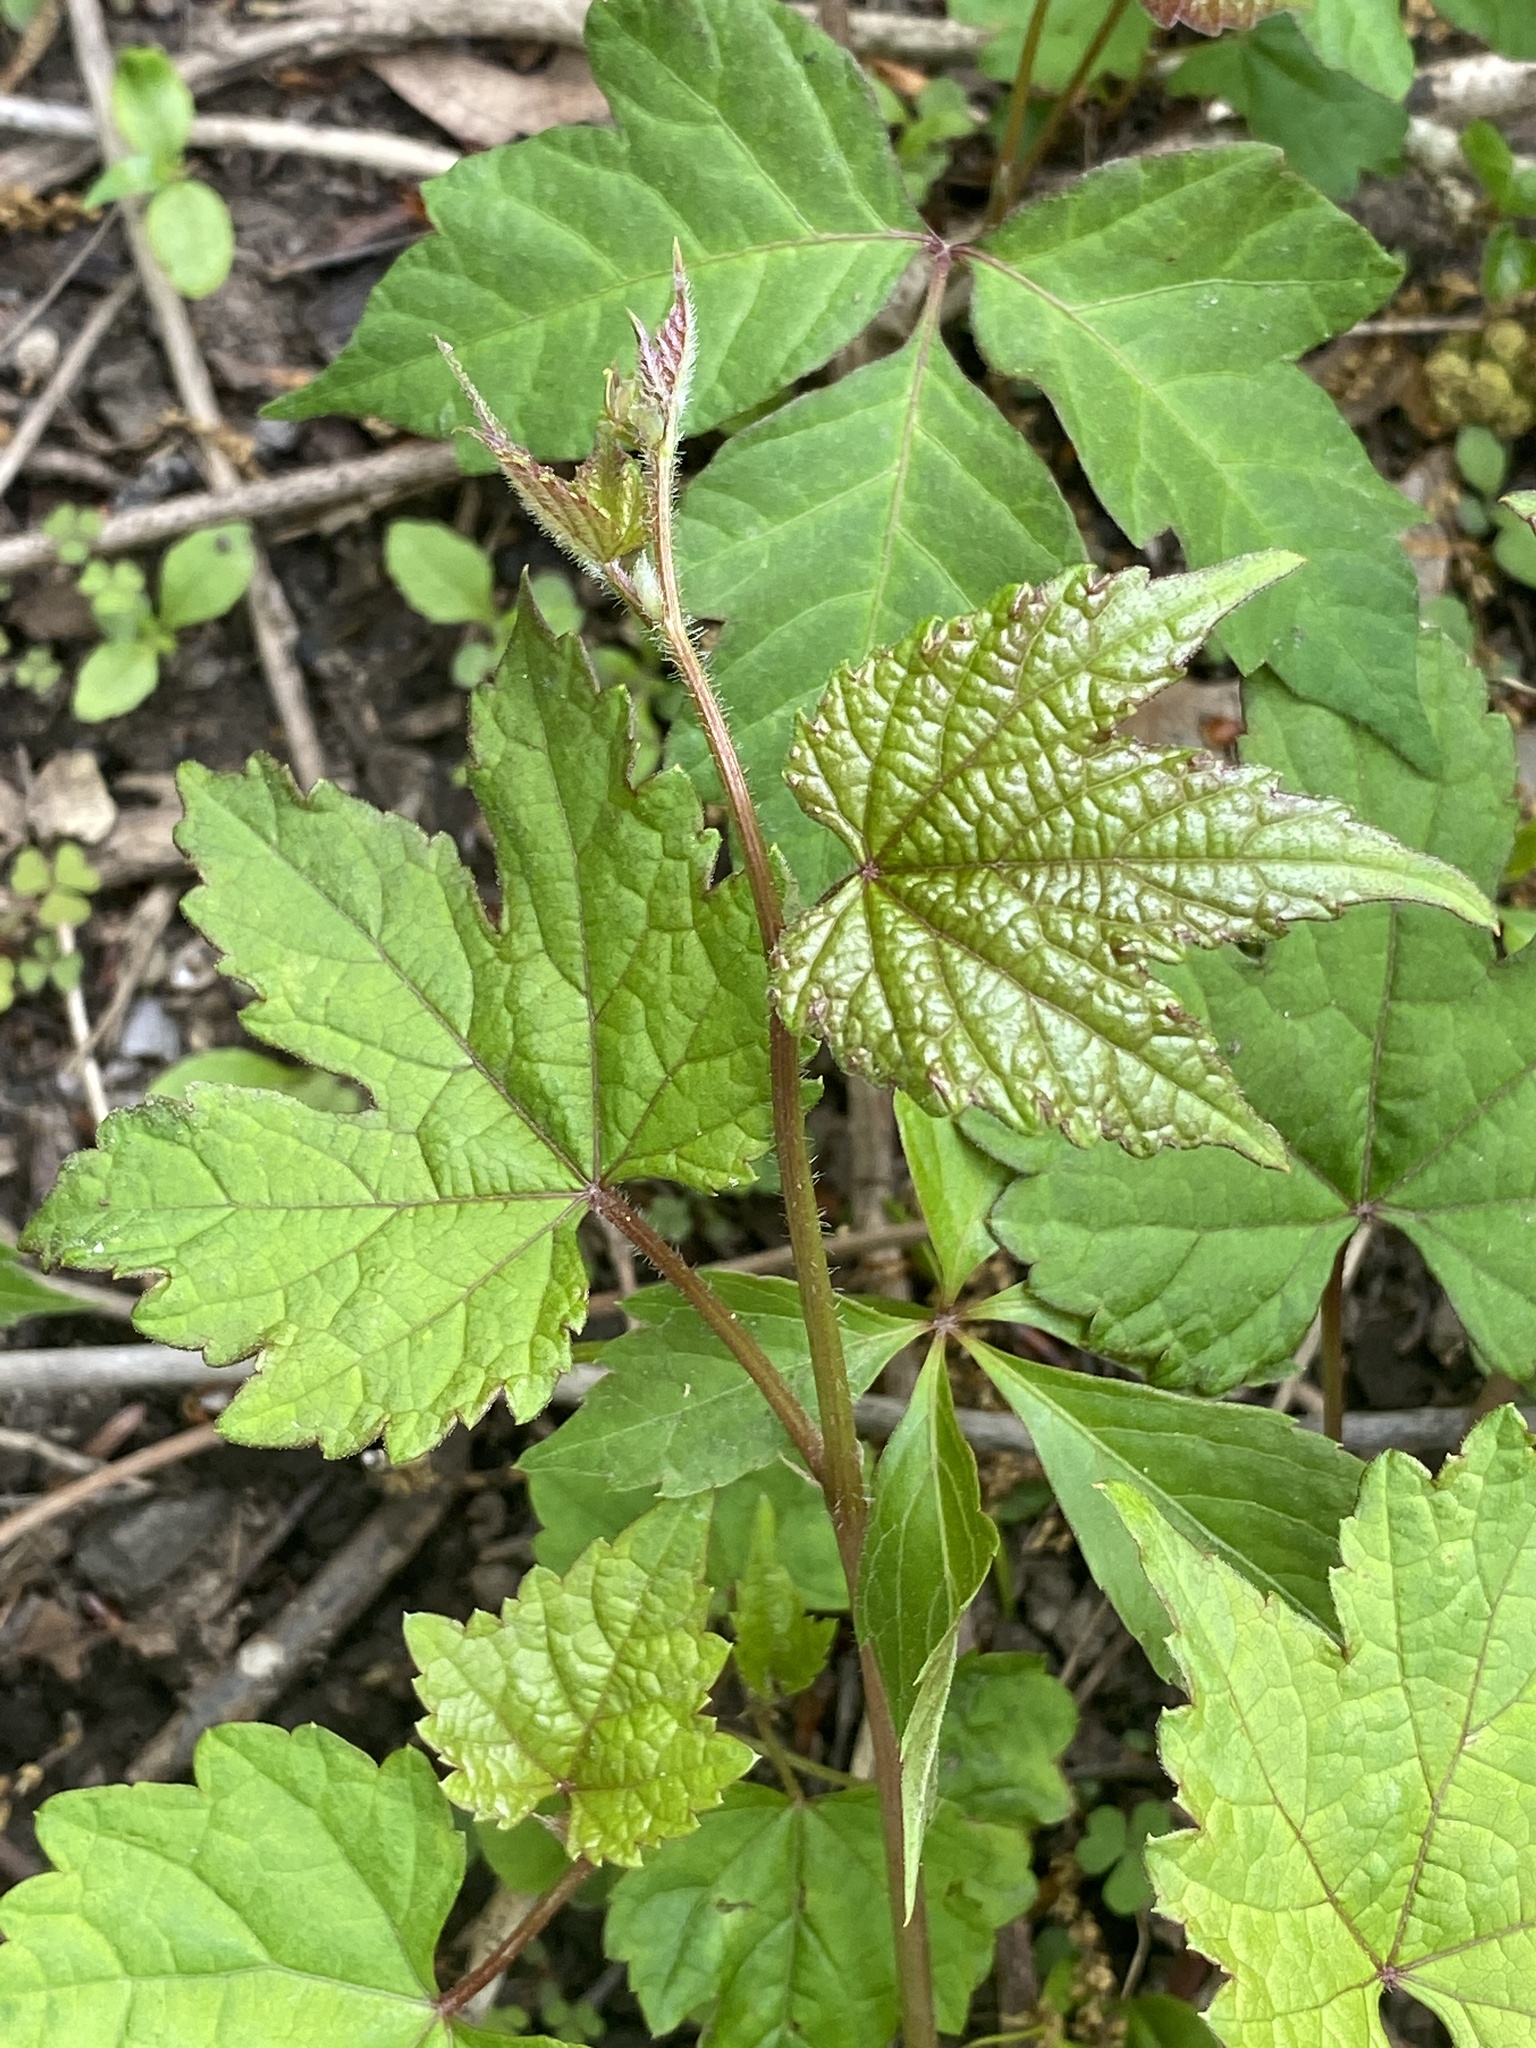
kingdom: Plantae
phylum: Tracheophyta
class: Magnoliopsida
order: Vitales
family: Vitaceae
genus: Ampelopsis
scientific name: Ampelopsis glandulosa
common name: Amur peppervine
